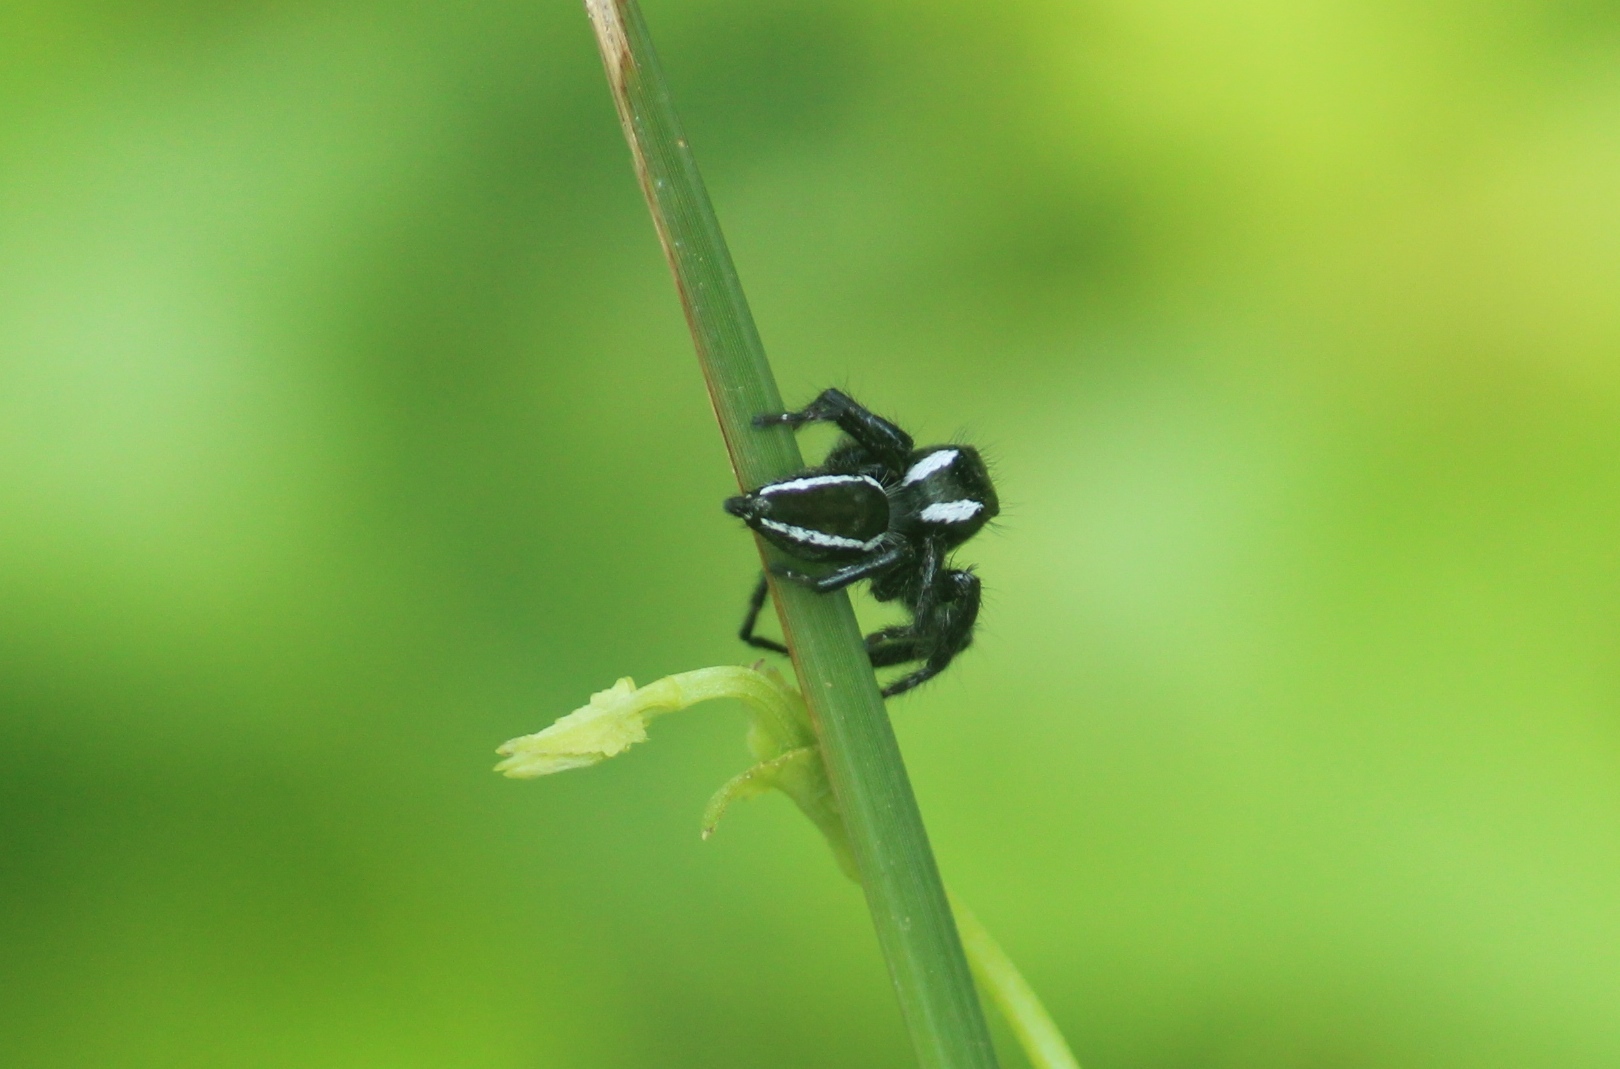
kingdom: Animalia
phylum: Arthropoda
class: Arachnida
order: Araneae
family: Salticidae
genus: Carrhotus
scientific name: Carrhotus viduus
